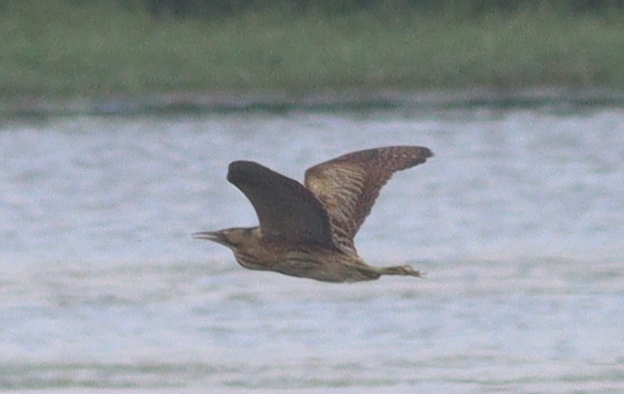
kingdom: Animalia
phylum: Chordata
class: Aves
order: Pelecaniformes
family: Ardeidae
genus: Botaurus
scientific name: Botaurus stellaris
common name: Eurasian bittern
